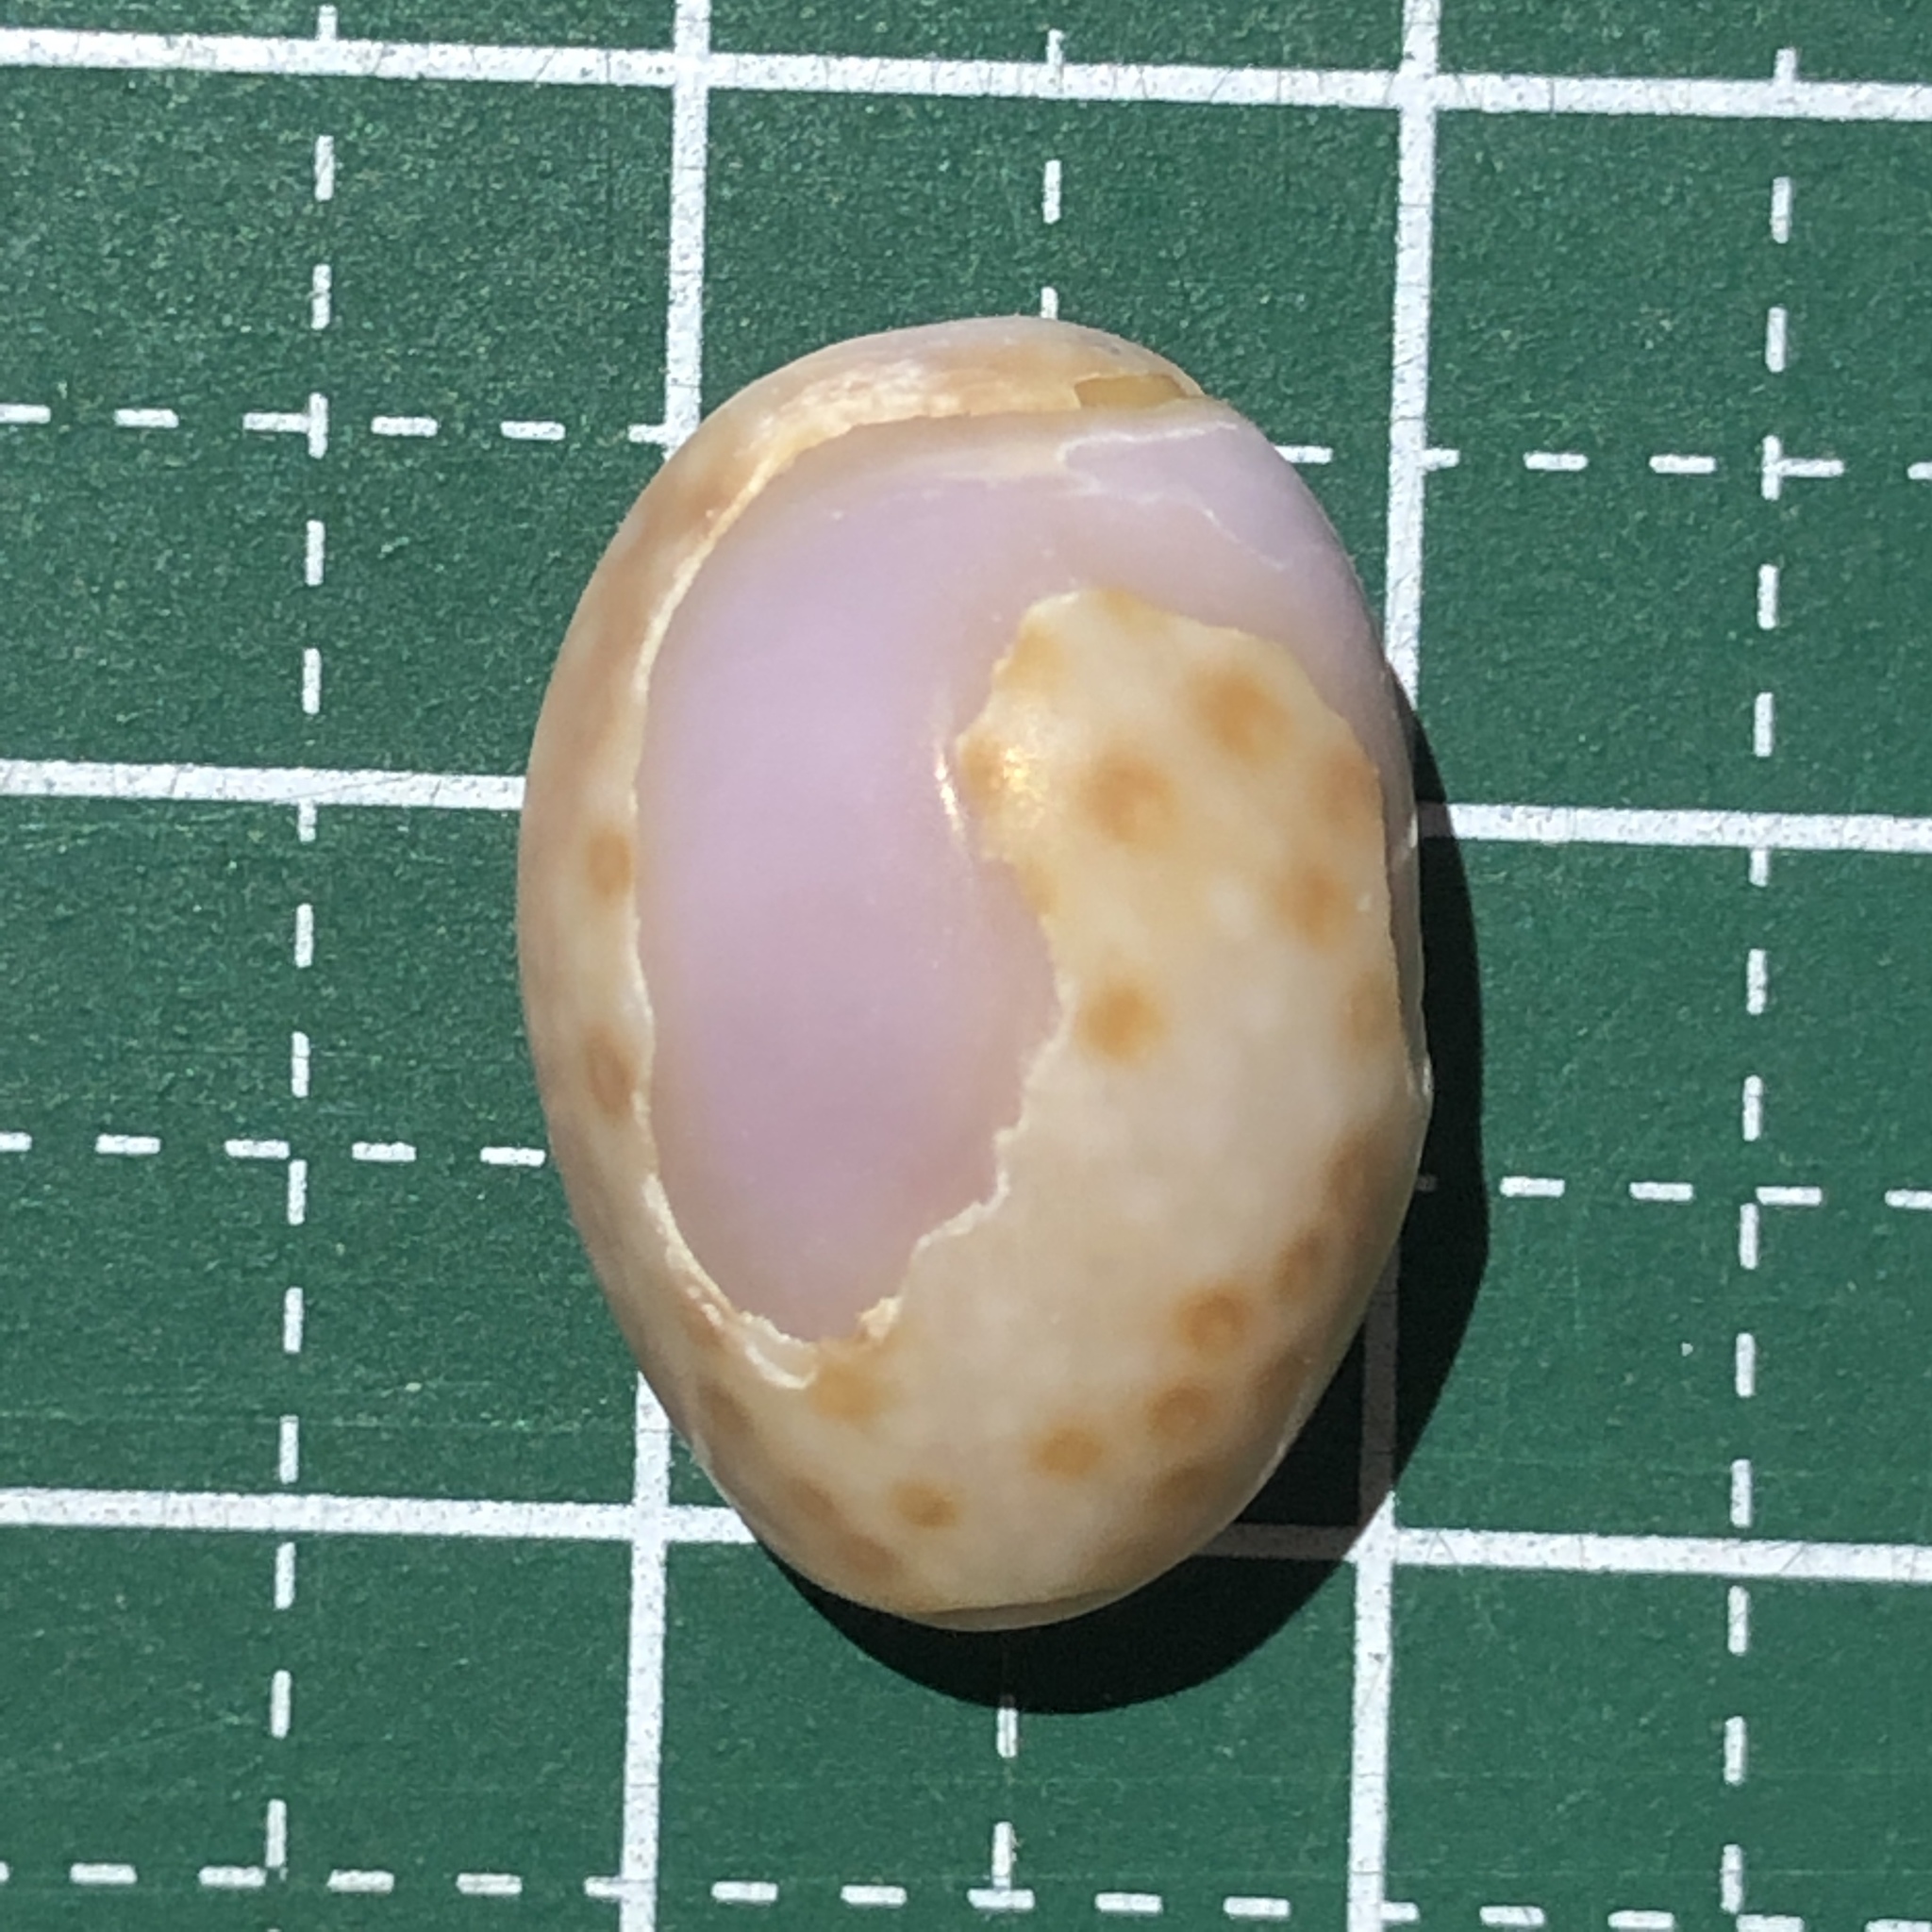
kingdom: Animalia
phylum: Mollusca
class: Gastropoda
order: Littorinimorpha
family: Cypraeidae
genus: Naria
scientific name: Naria poraria
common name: Cowrie
